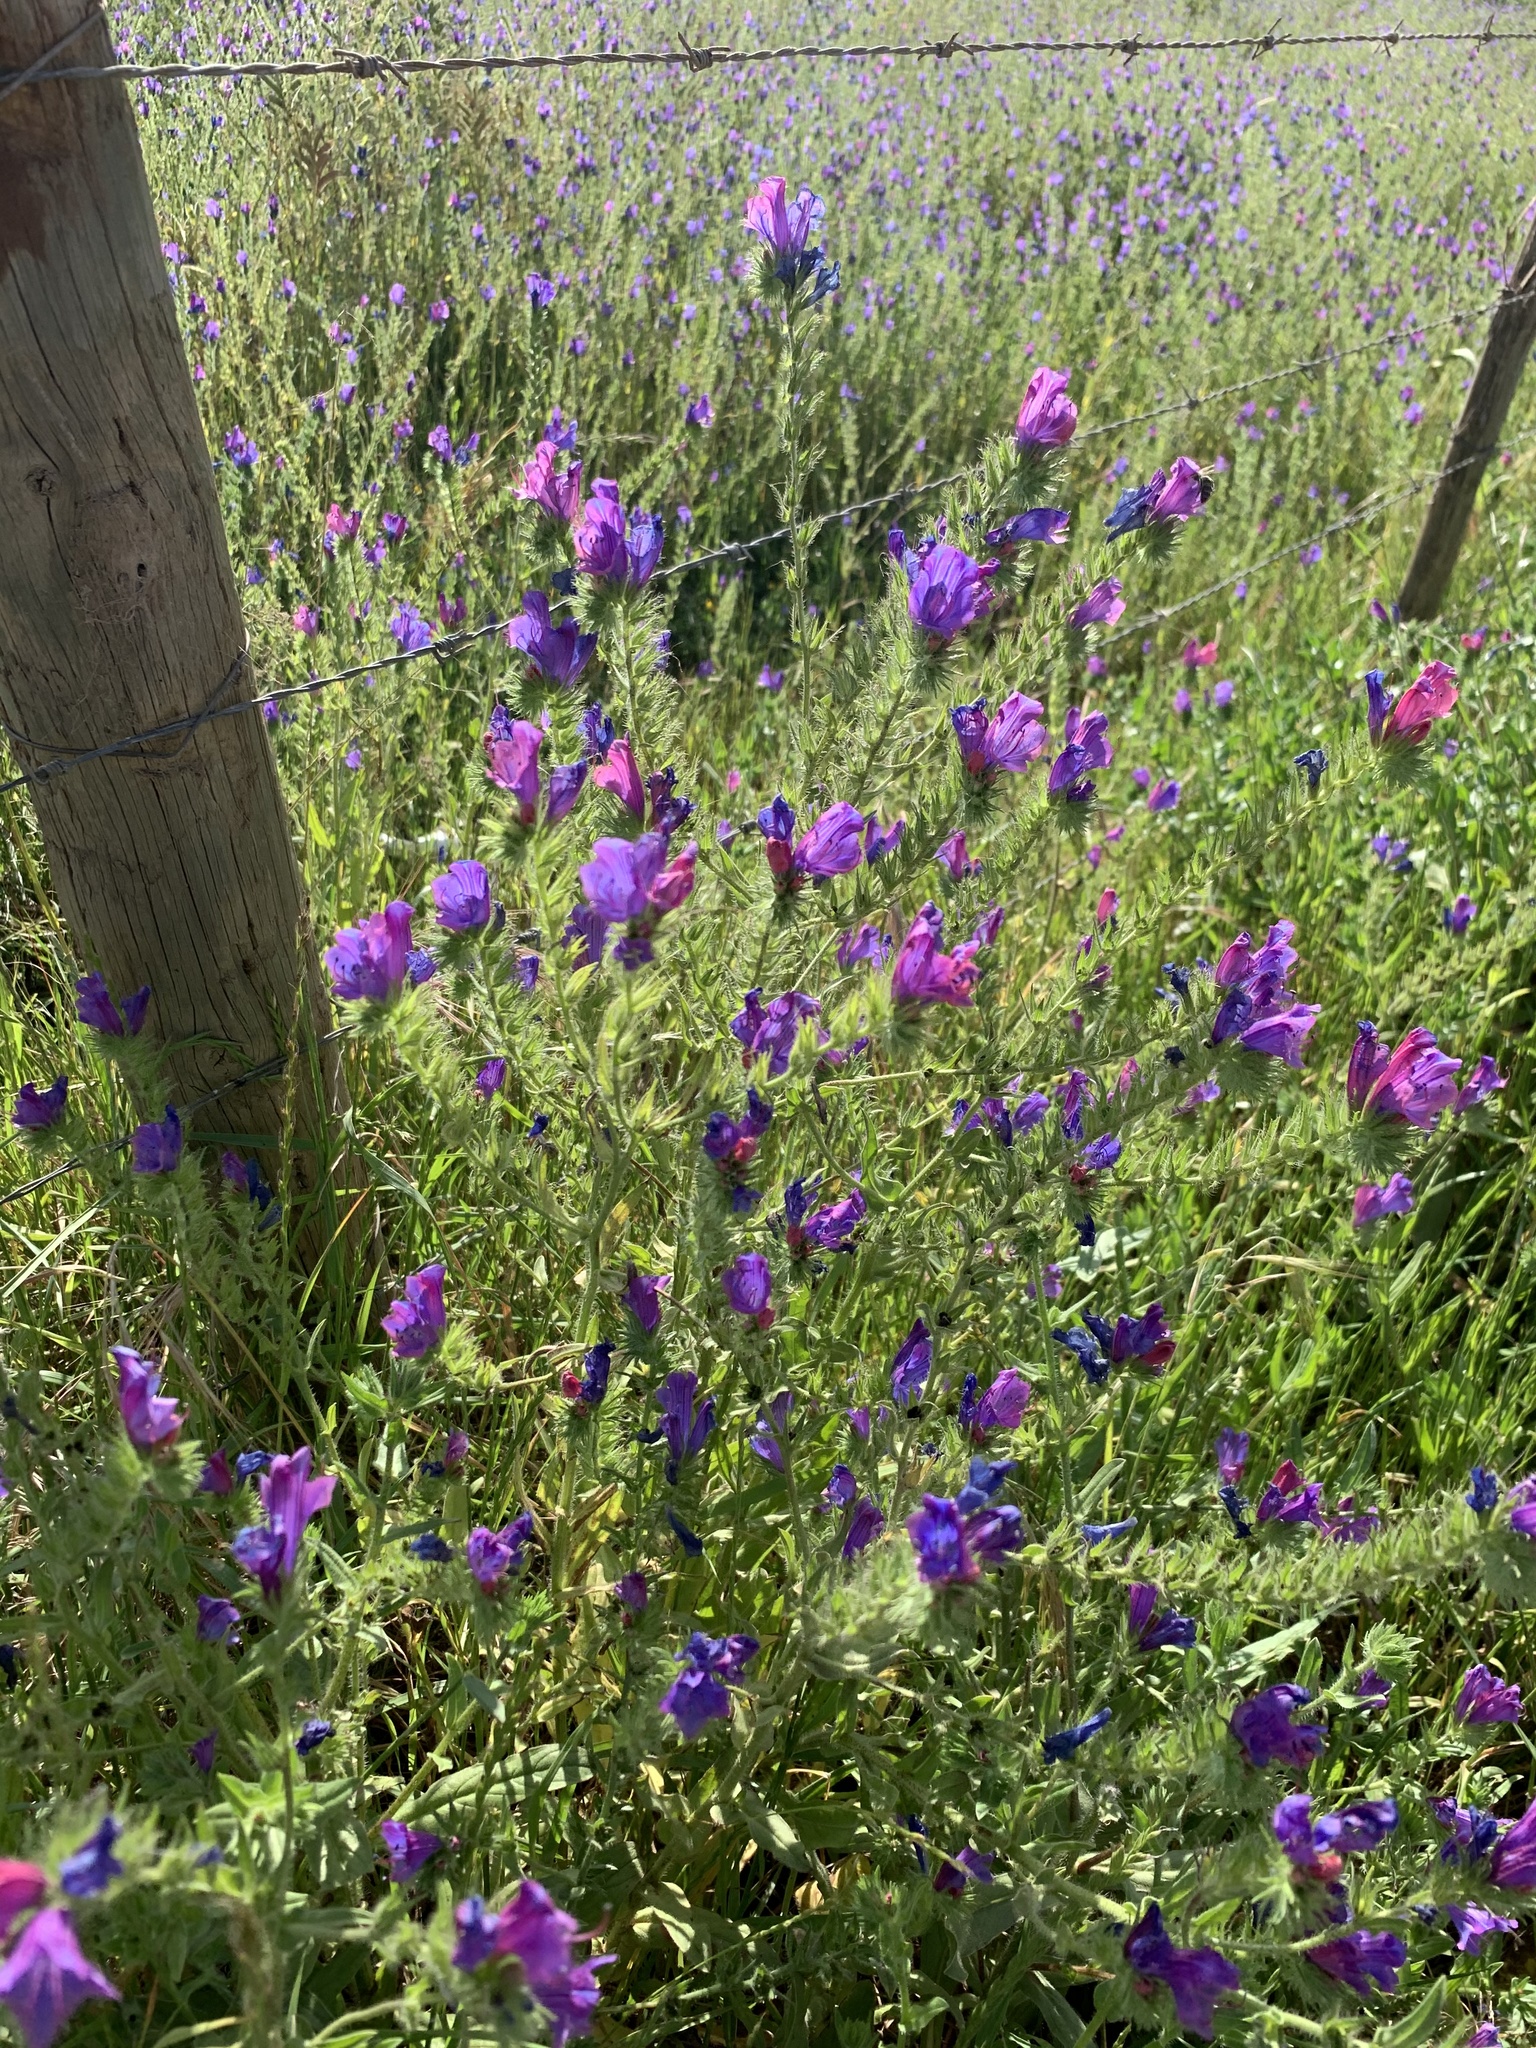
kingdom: Plantae
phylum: Tracheophyta
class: Magnoliopsida
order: Boraginales
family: Boraginaceae
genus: Echium
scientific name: Echium plantagineum
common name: Purple viper's-bugloss
